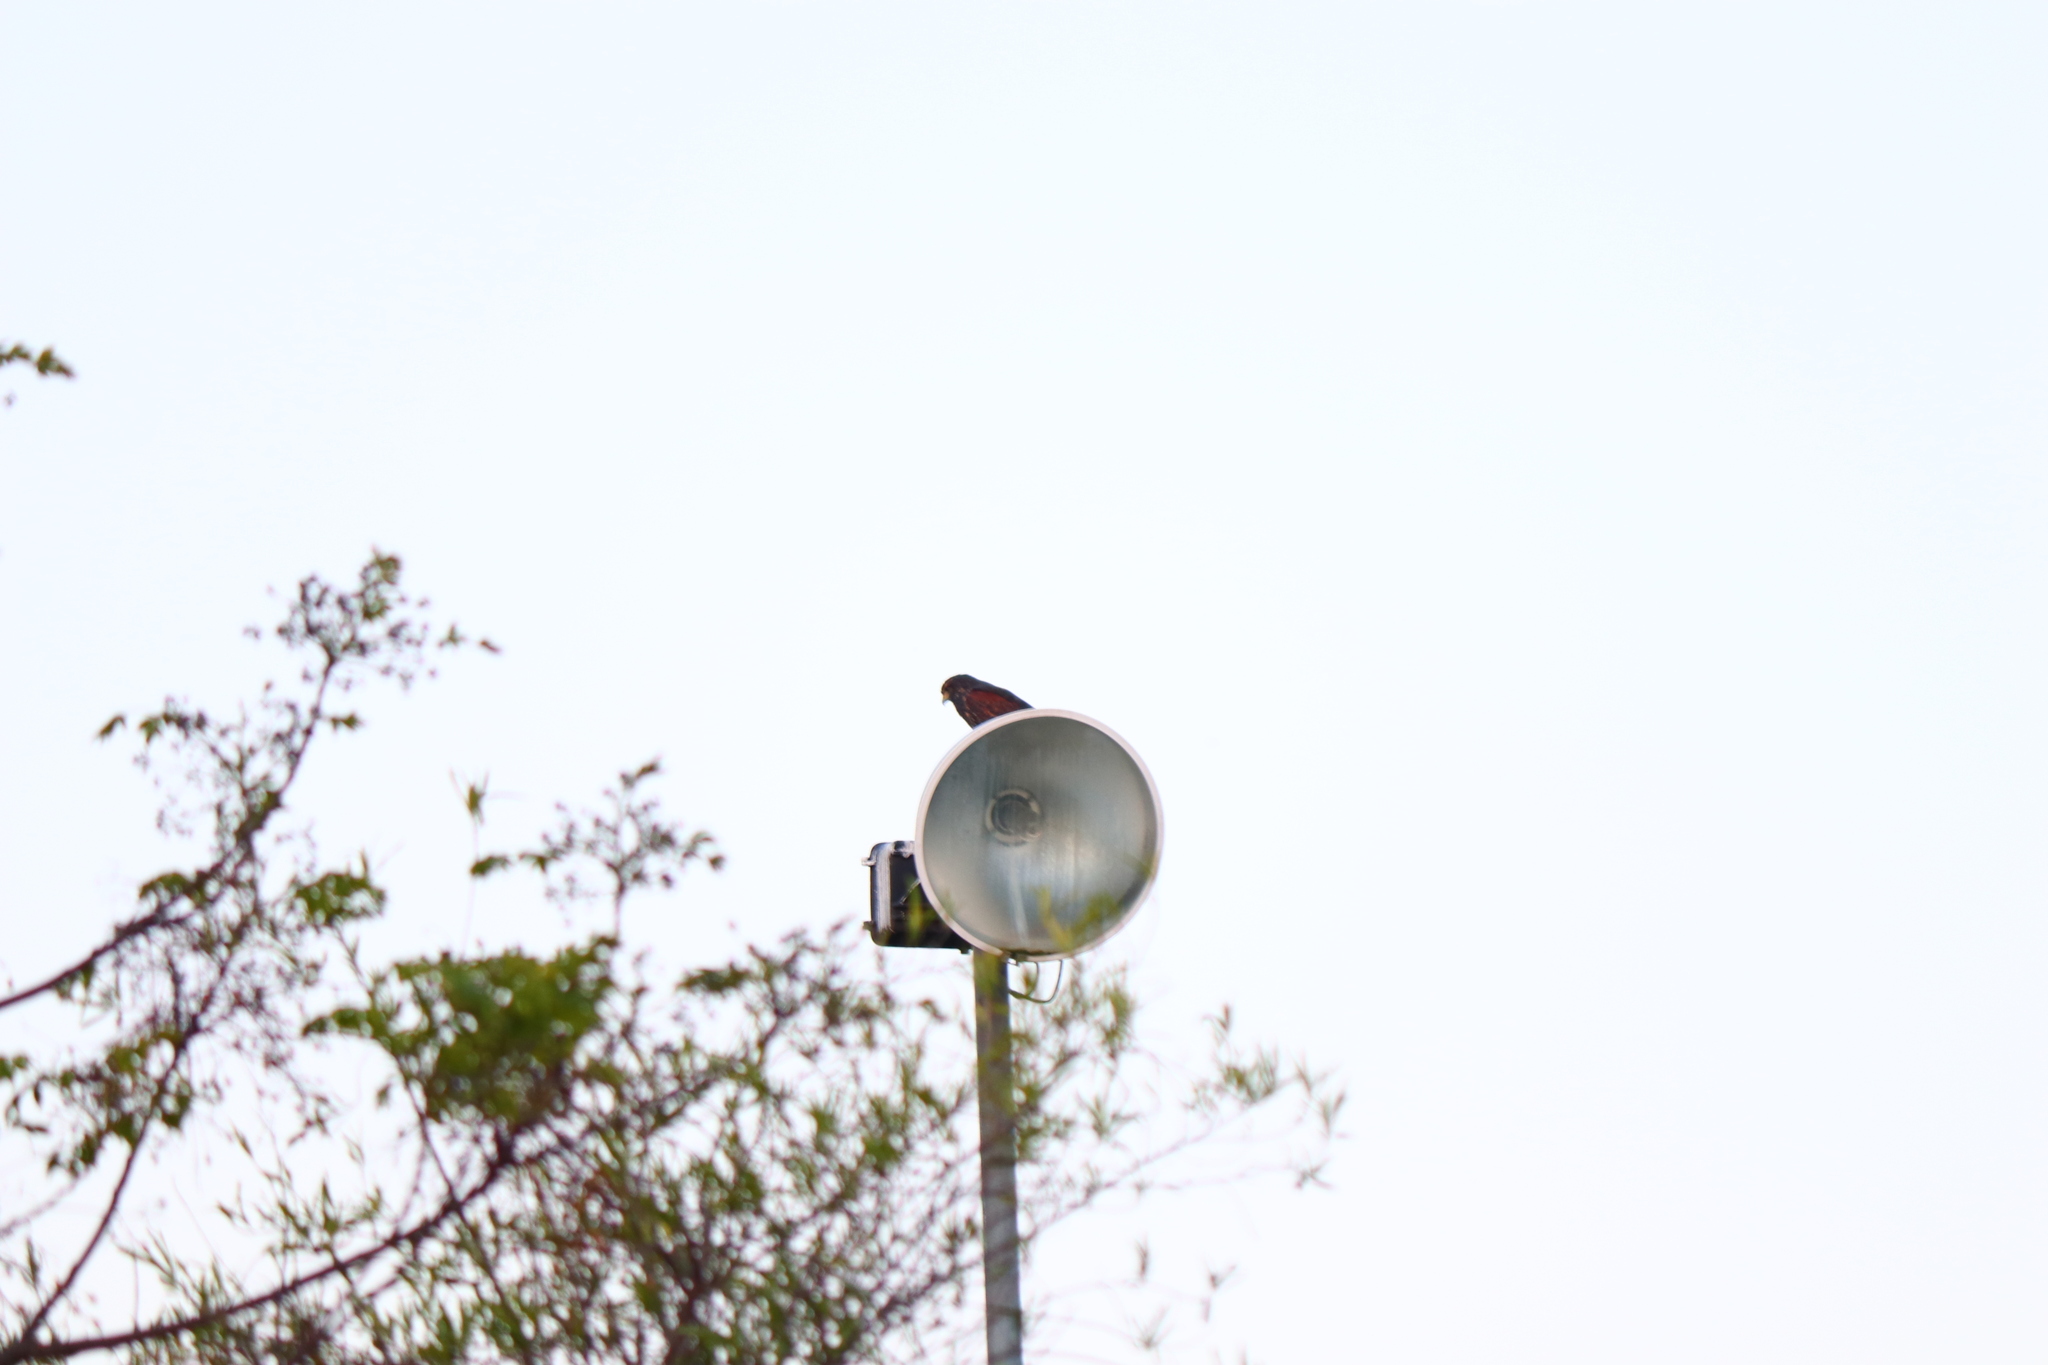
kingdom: Animalia
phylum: Chordata
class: Aves
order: Accipitriformes
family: Accipitridae
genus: Parabuteo
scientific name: Parabuteo unicinctus
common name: Harris's hawk
